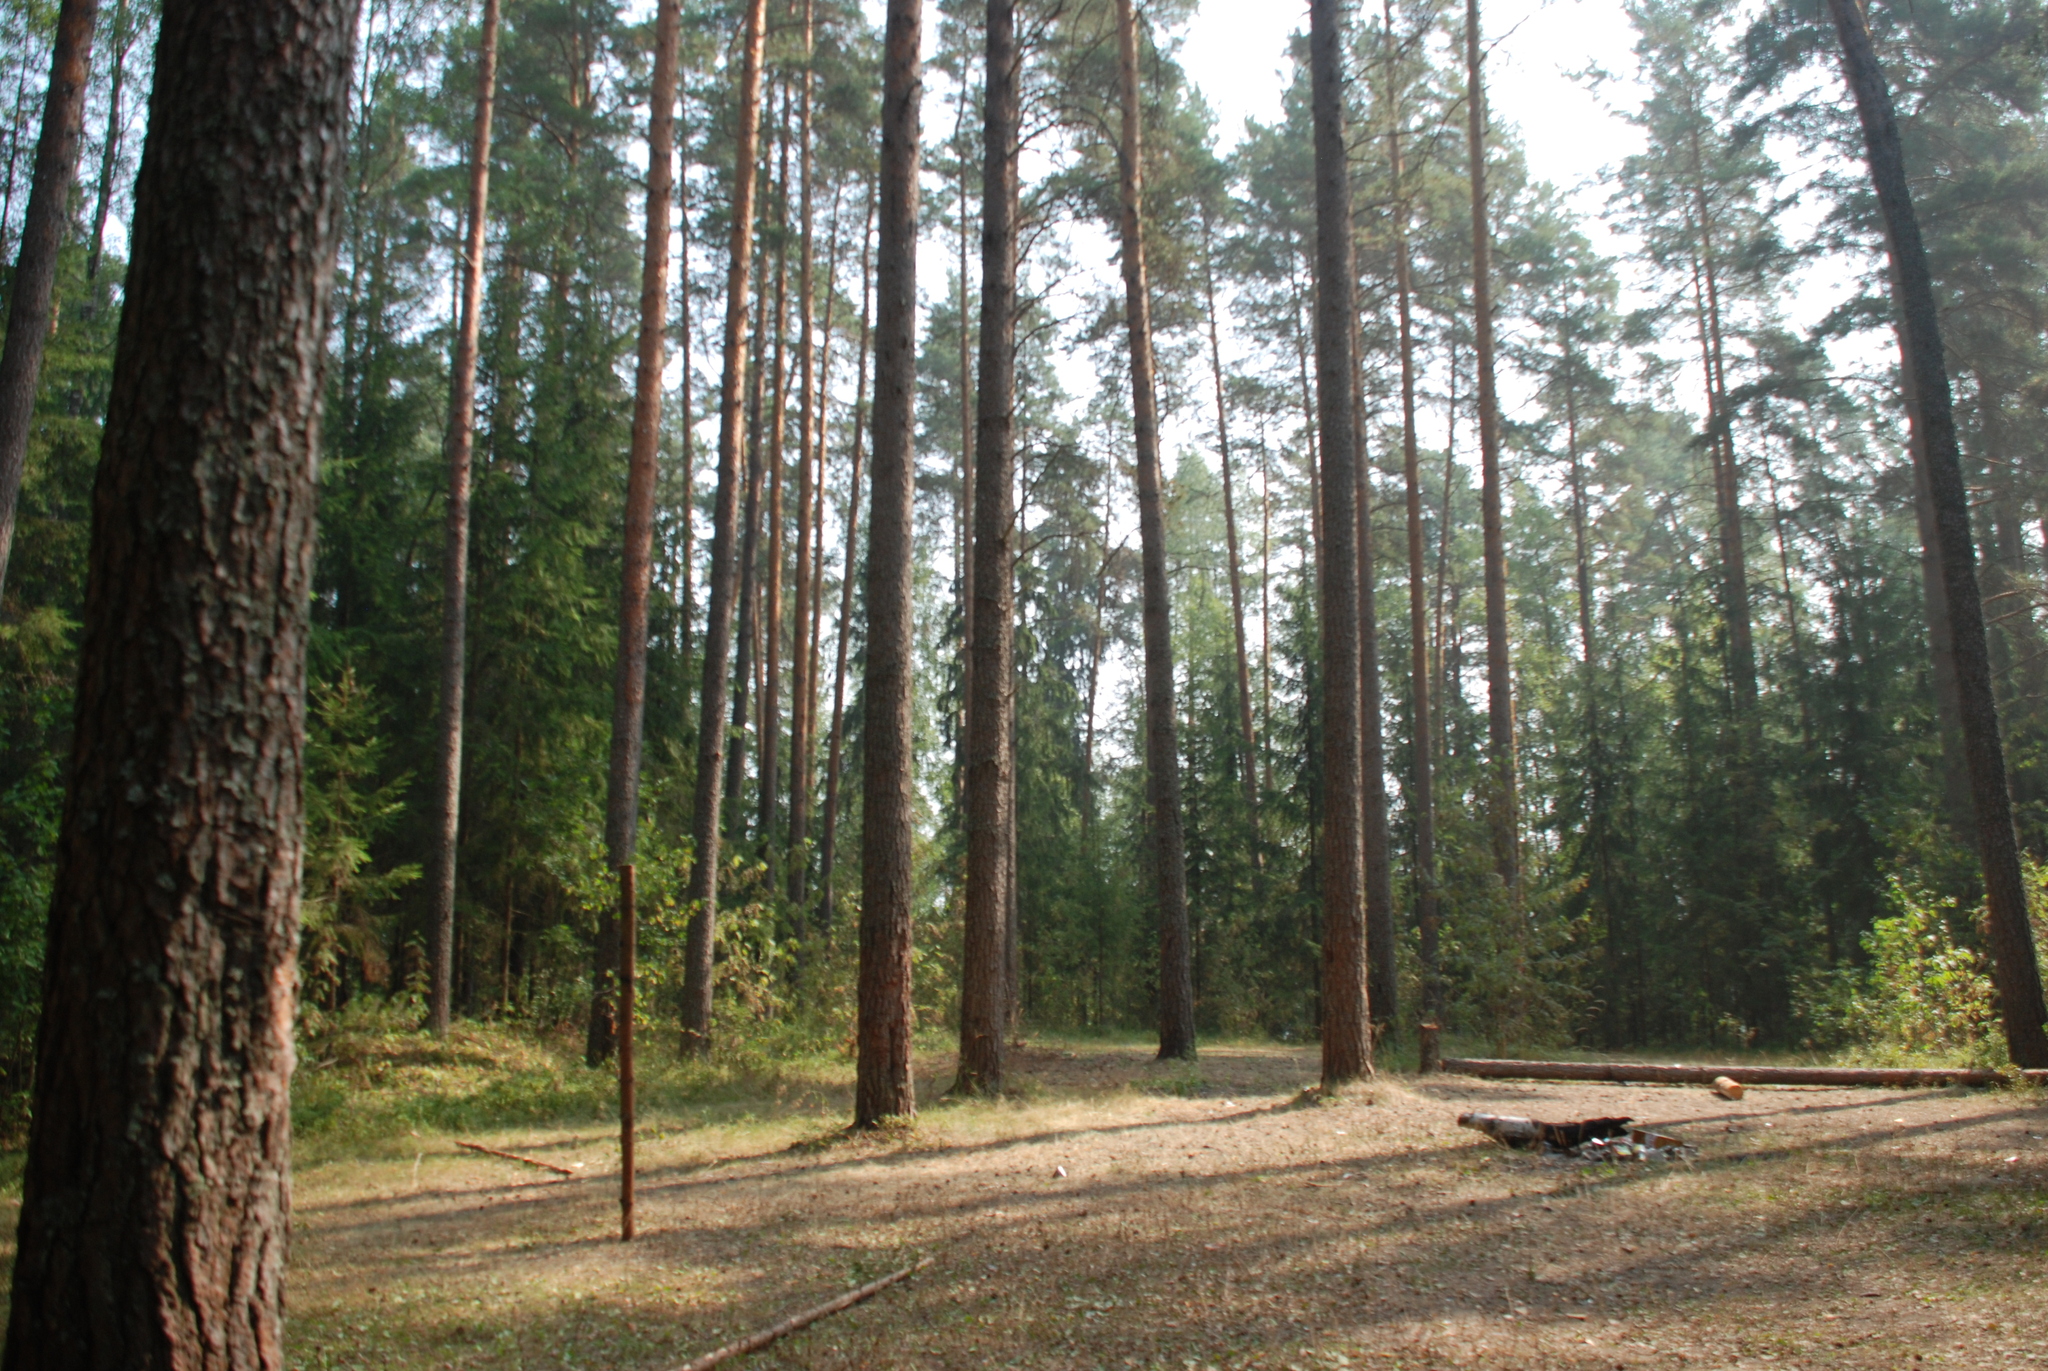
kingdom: Plantae
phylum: Tracheophyta
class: Pinopsida
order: Pinales
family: Pinaceae
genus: Pinus
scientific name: Pinus sylvestris
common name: Scots pine
